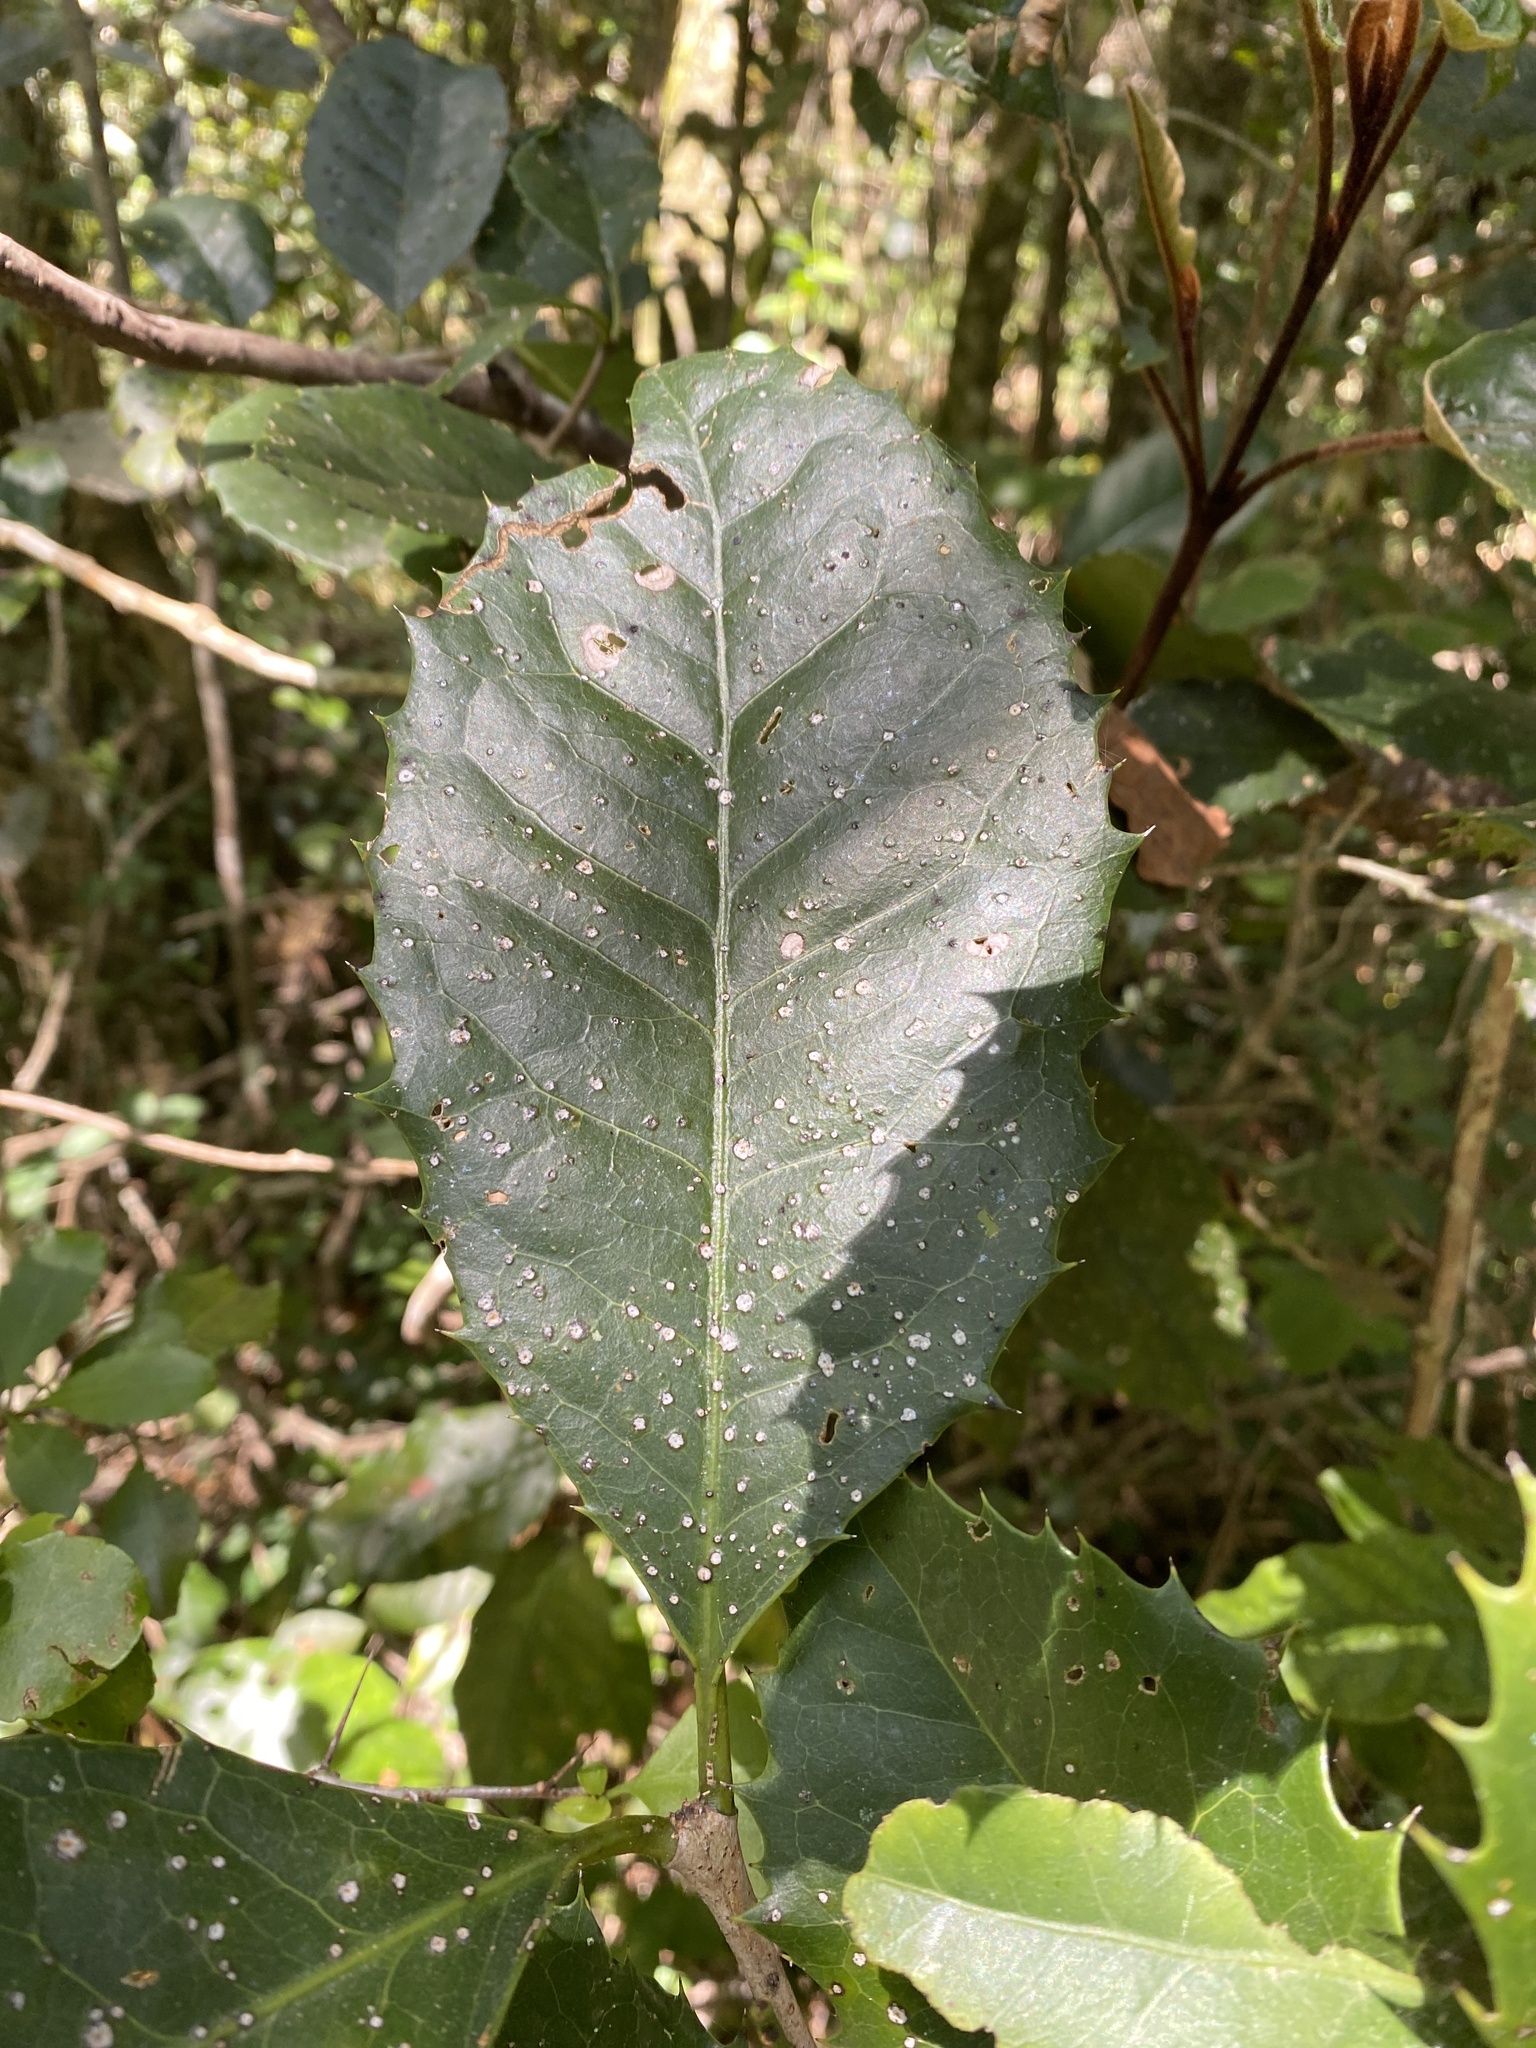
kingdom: Plantae
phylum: Tracheophyta
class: Magnoliopsida
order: Celastrales
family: Celastraceae
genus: Elaeodendron
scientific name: Elaeodendron croceum
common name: Saffron
